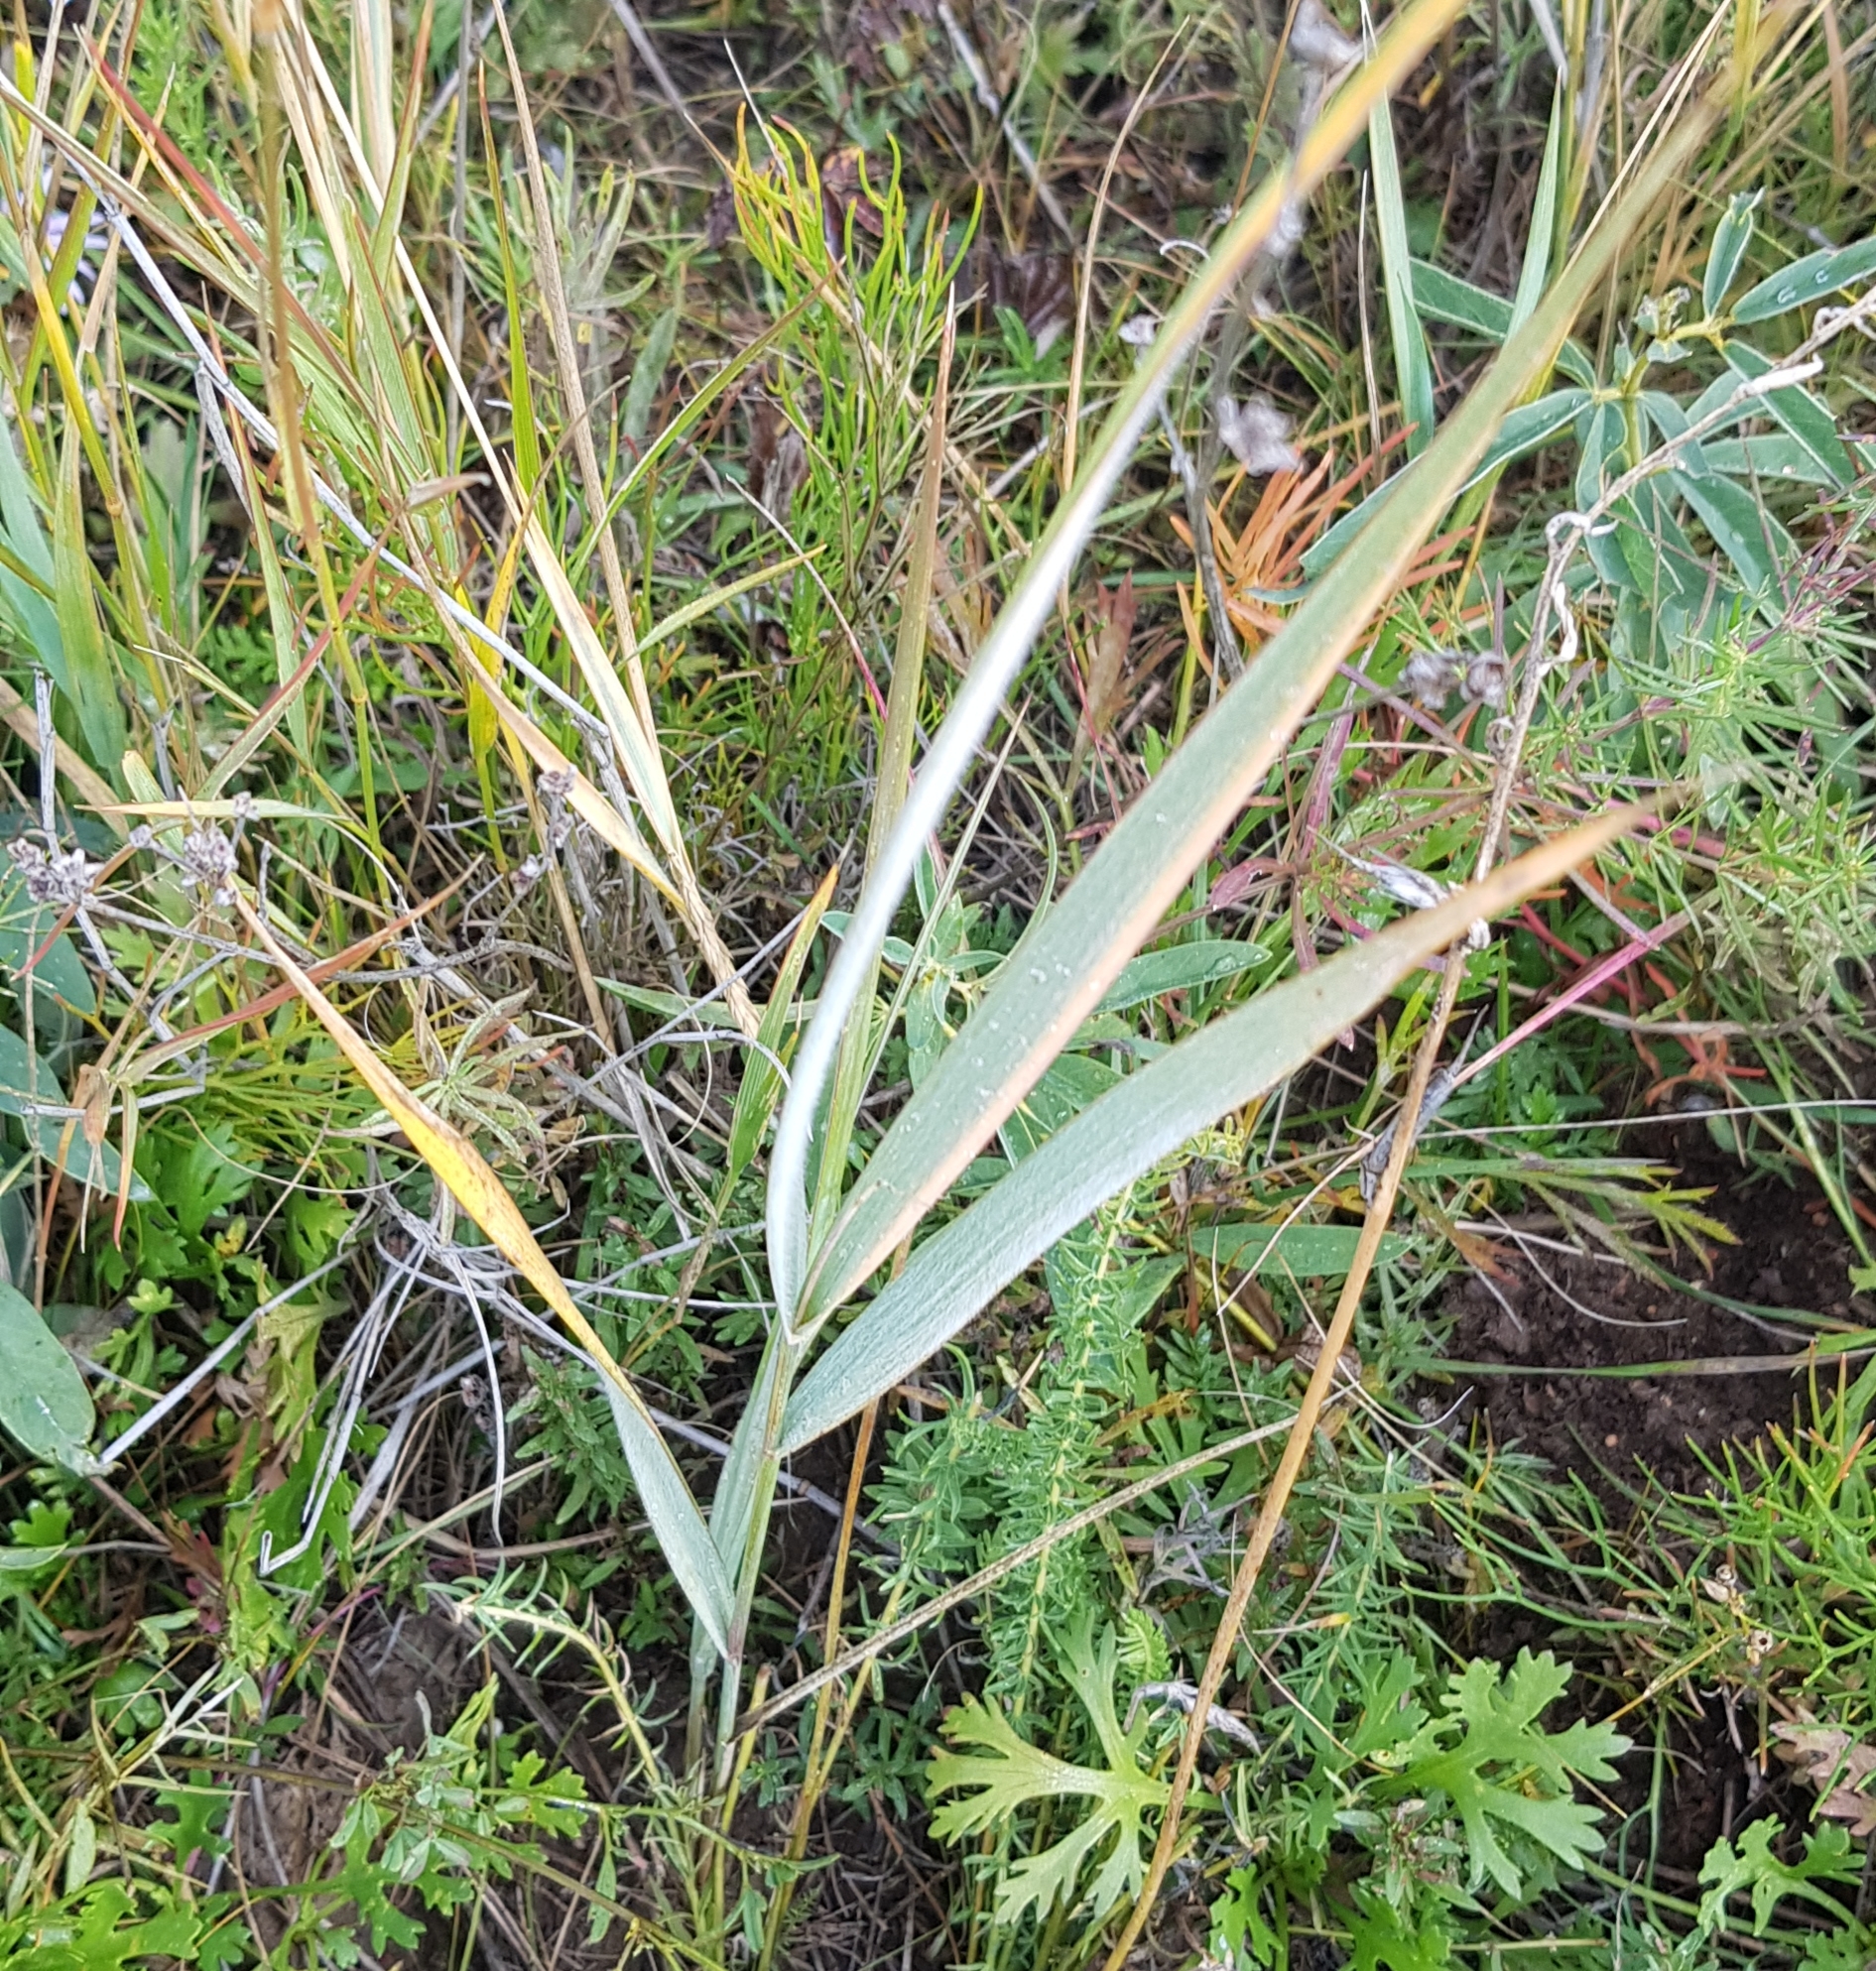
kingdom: Plantae
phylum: Tracheophyta
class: Liliopsida
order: Poales
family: Poaceae
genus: Leymus
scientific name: Leymus chinensis
